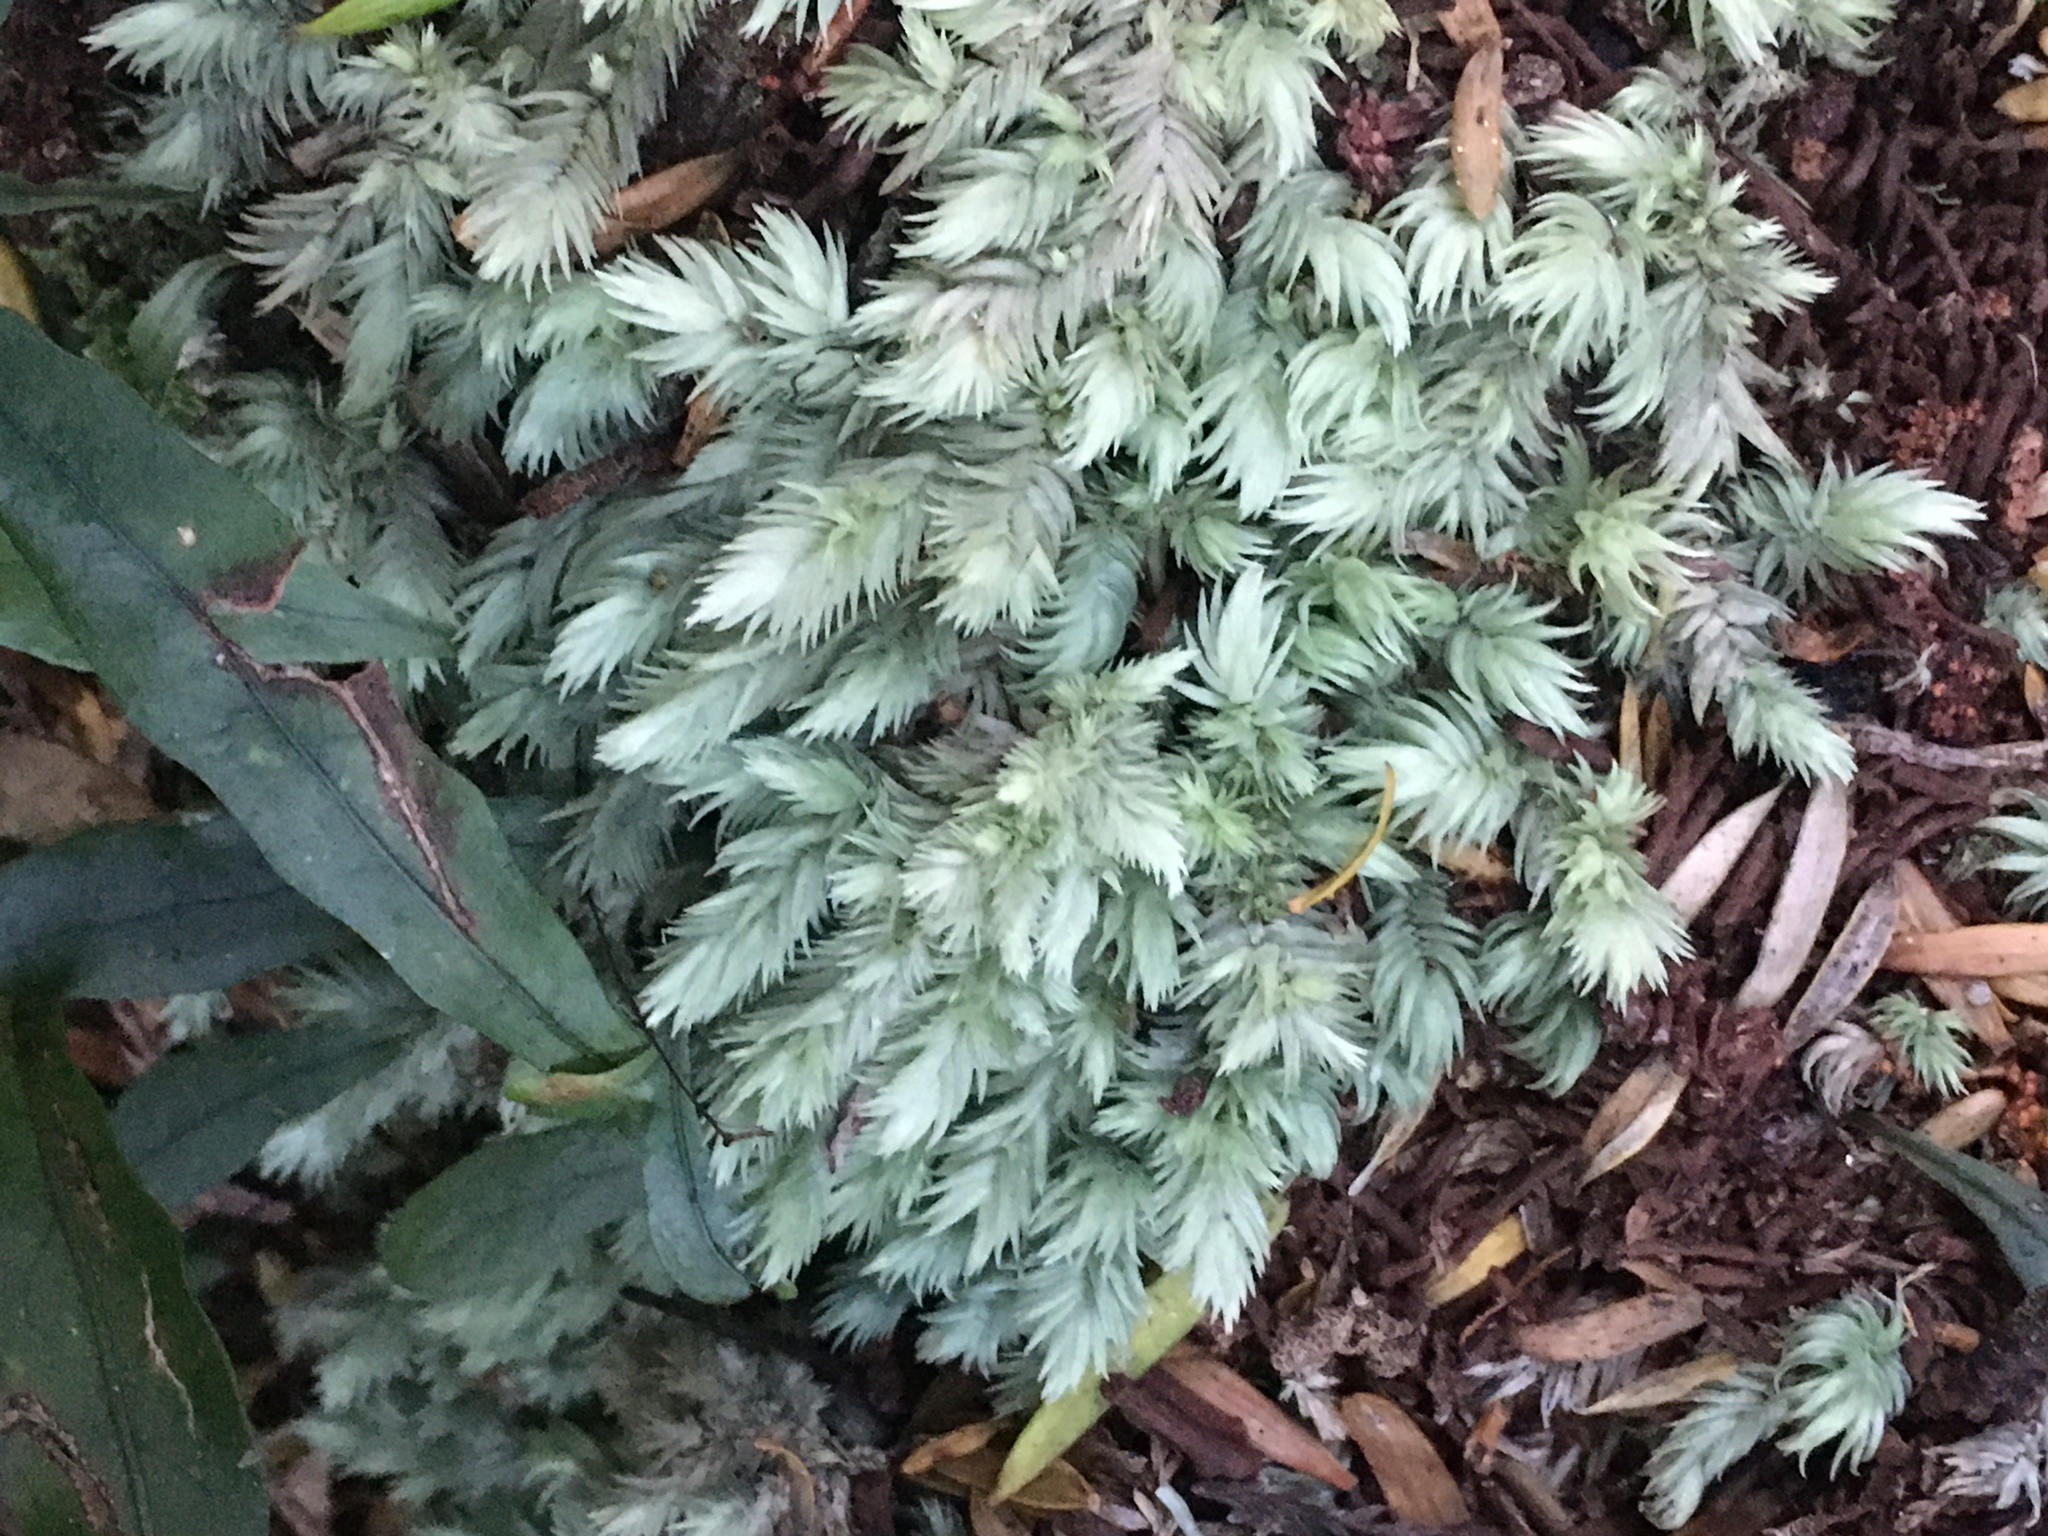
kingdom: Plantae
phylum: Bryophyta
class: Bryopsida
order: Dicranales
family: Leucobryaceae
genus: Leucobryum
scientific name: Leucobryum javense
